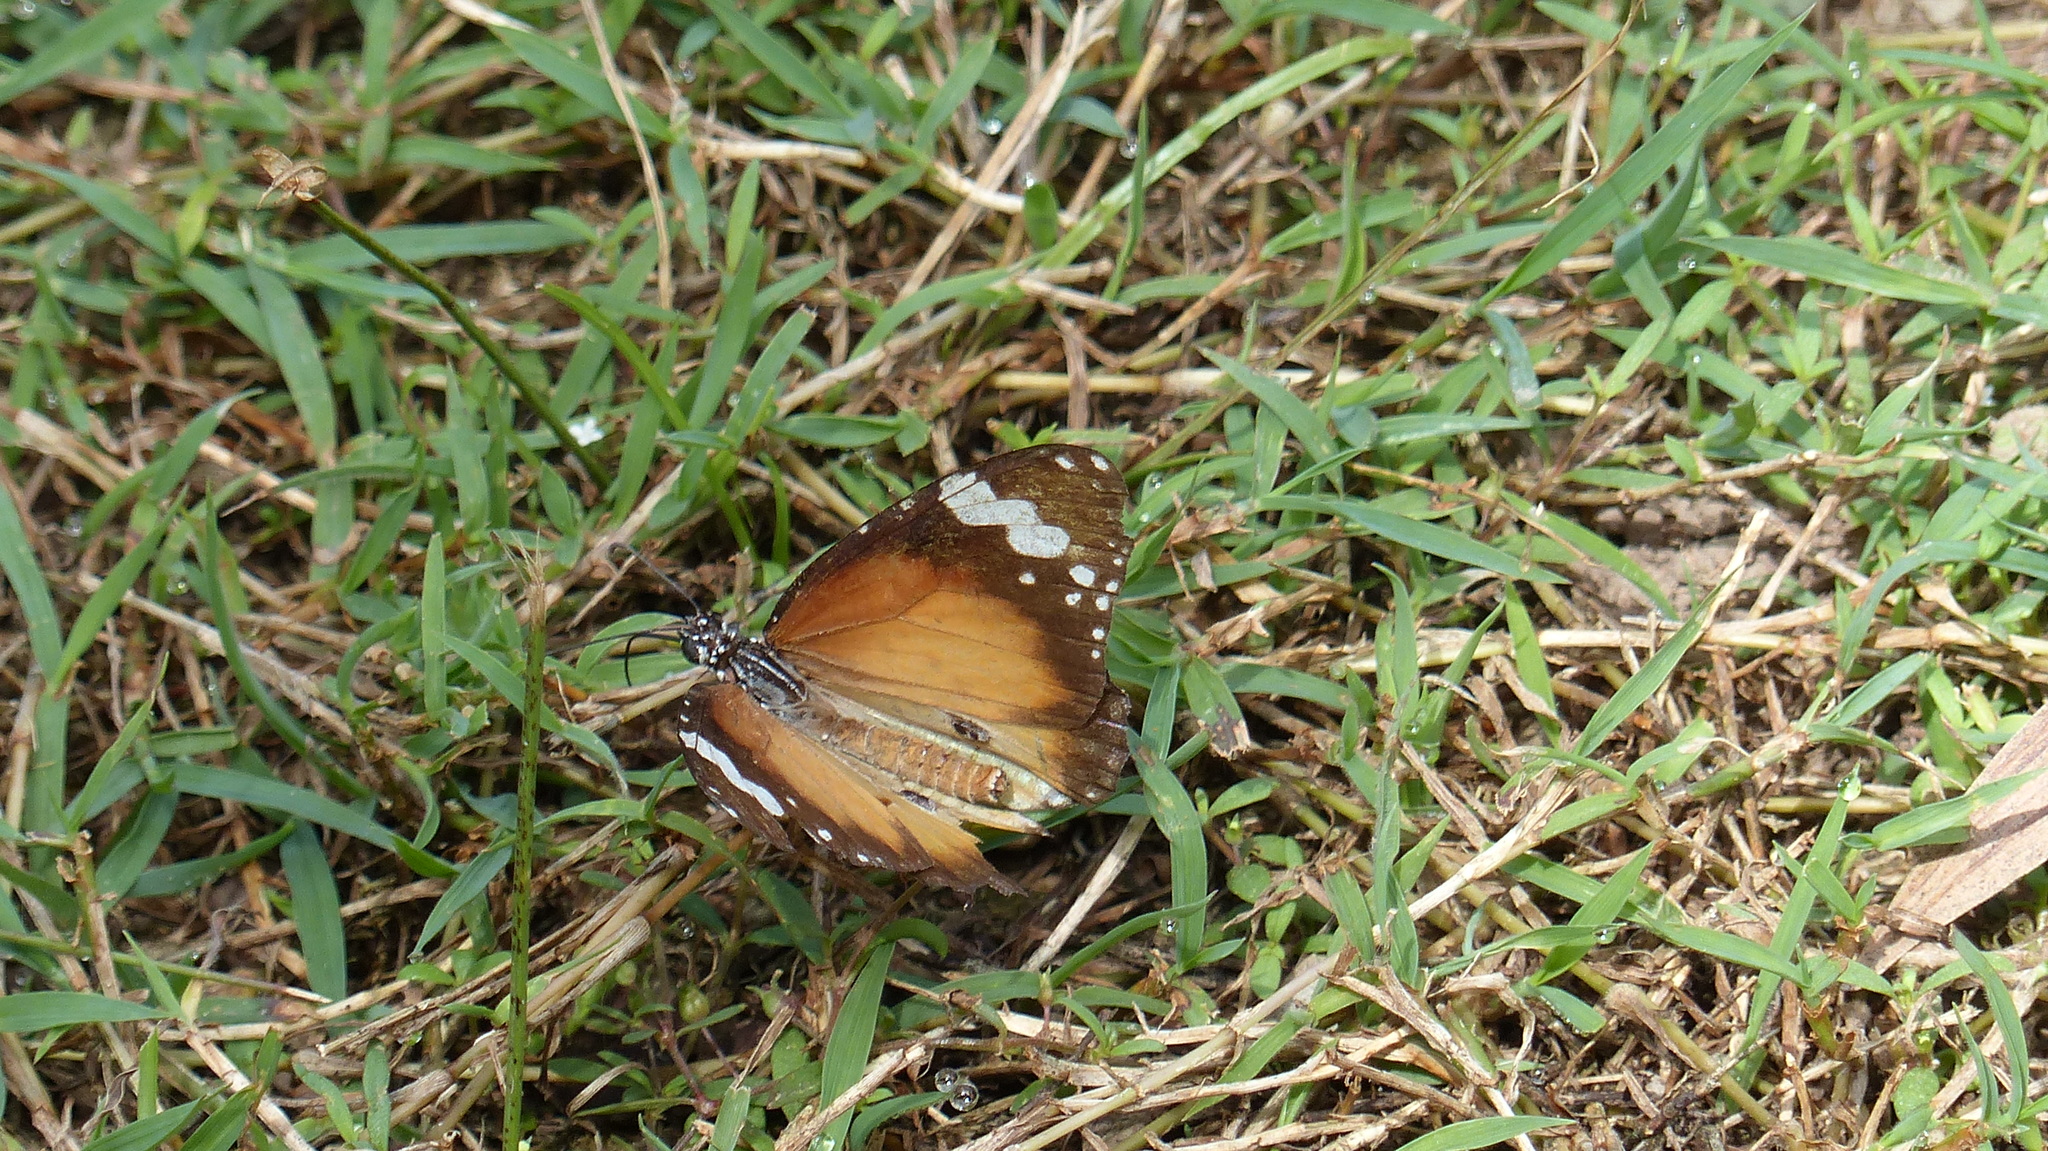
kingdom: Animalia
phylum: Arthropoda
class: Insecta
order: Lepidoptera
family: Nymphalidae
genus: Danaus
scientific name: Danaus chrysippus
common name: Plain tiger
